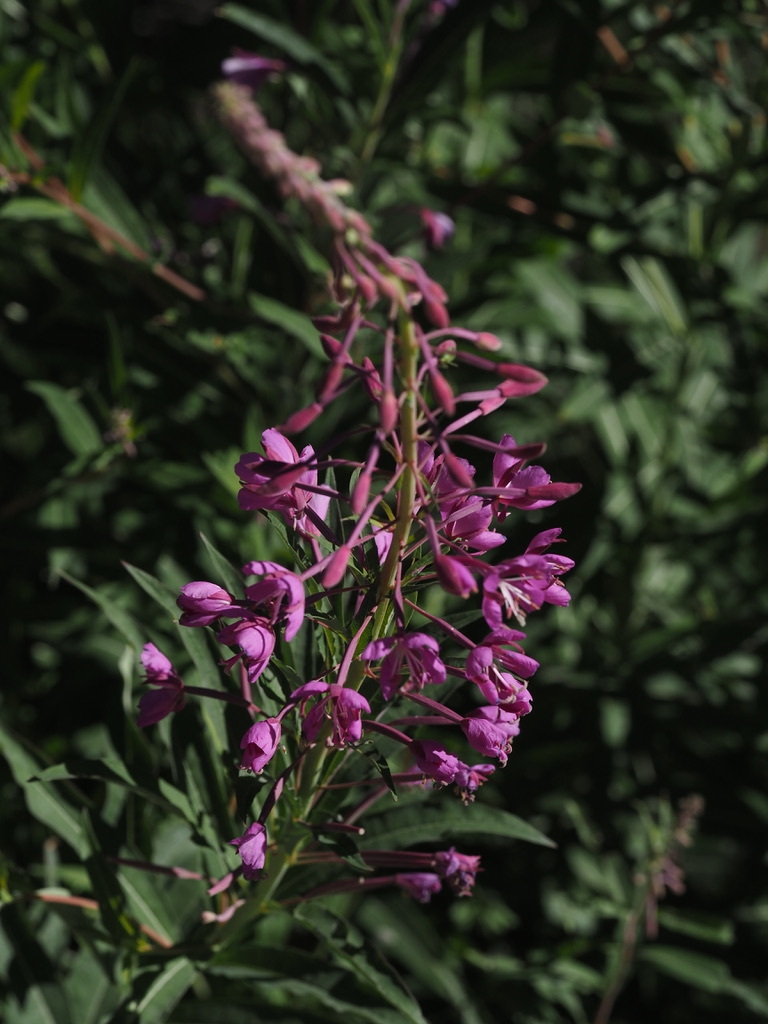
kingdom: Plantae
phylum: Tracheophyta
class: Magnoliopsida
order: Myrtales
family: Onagraceae
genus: Chamaenerion
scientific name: Chamaenerion angustifolium
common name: Fireweed
